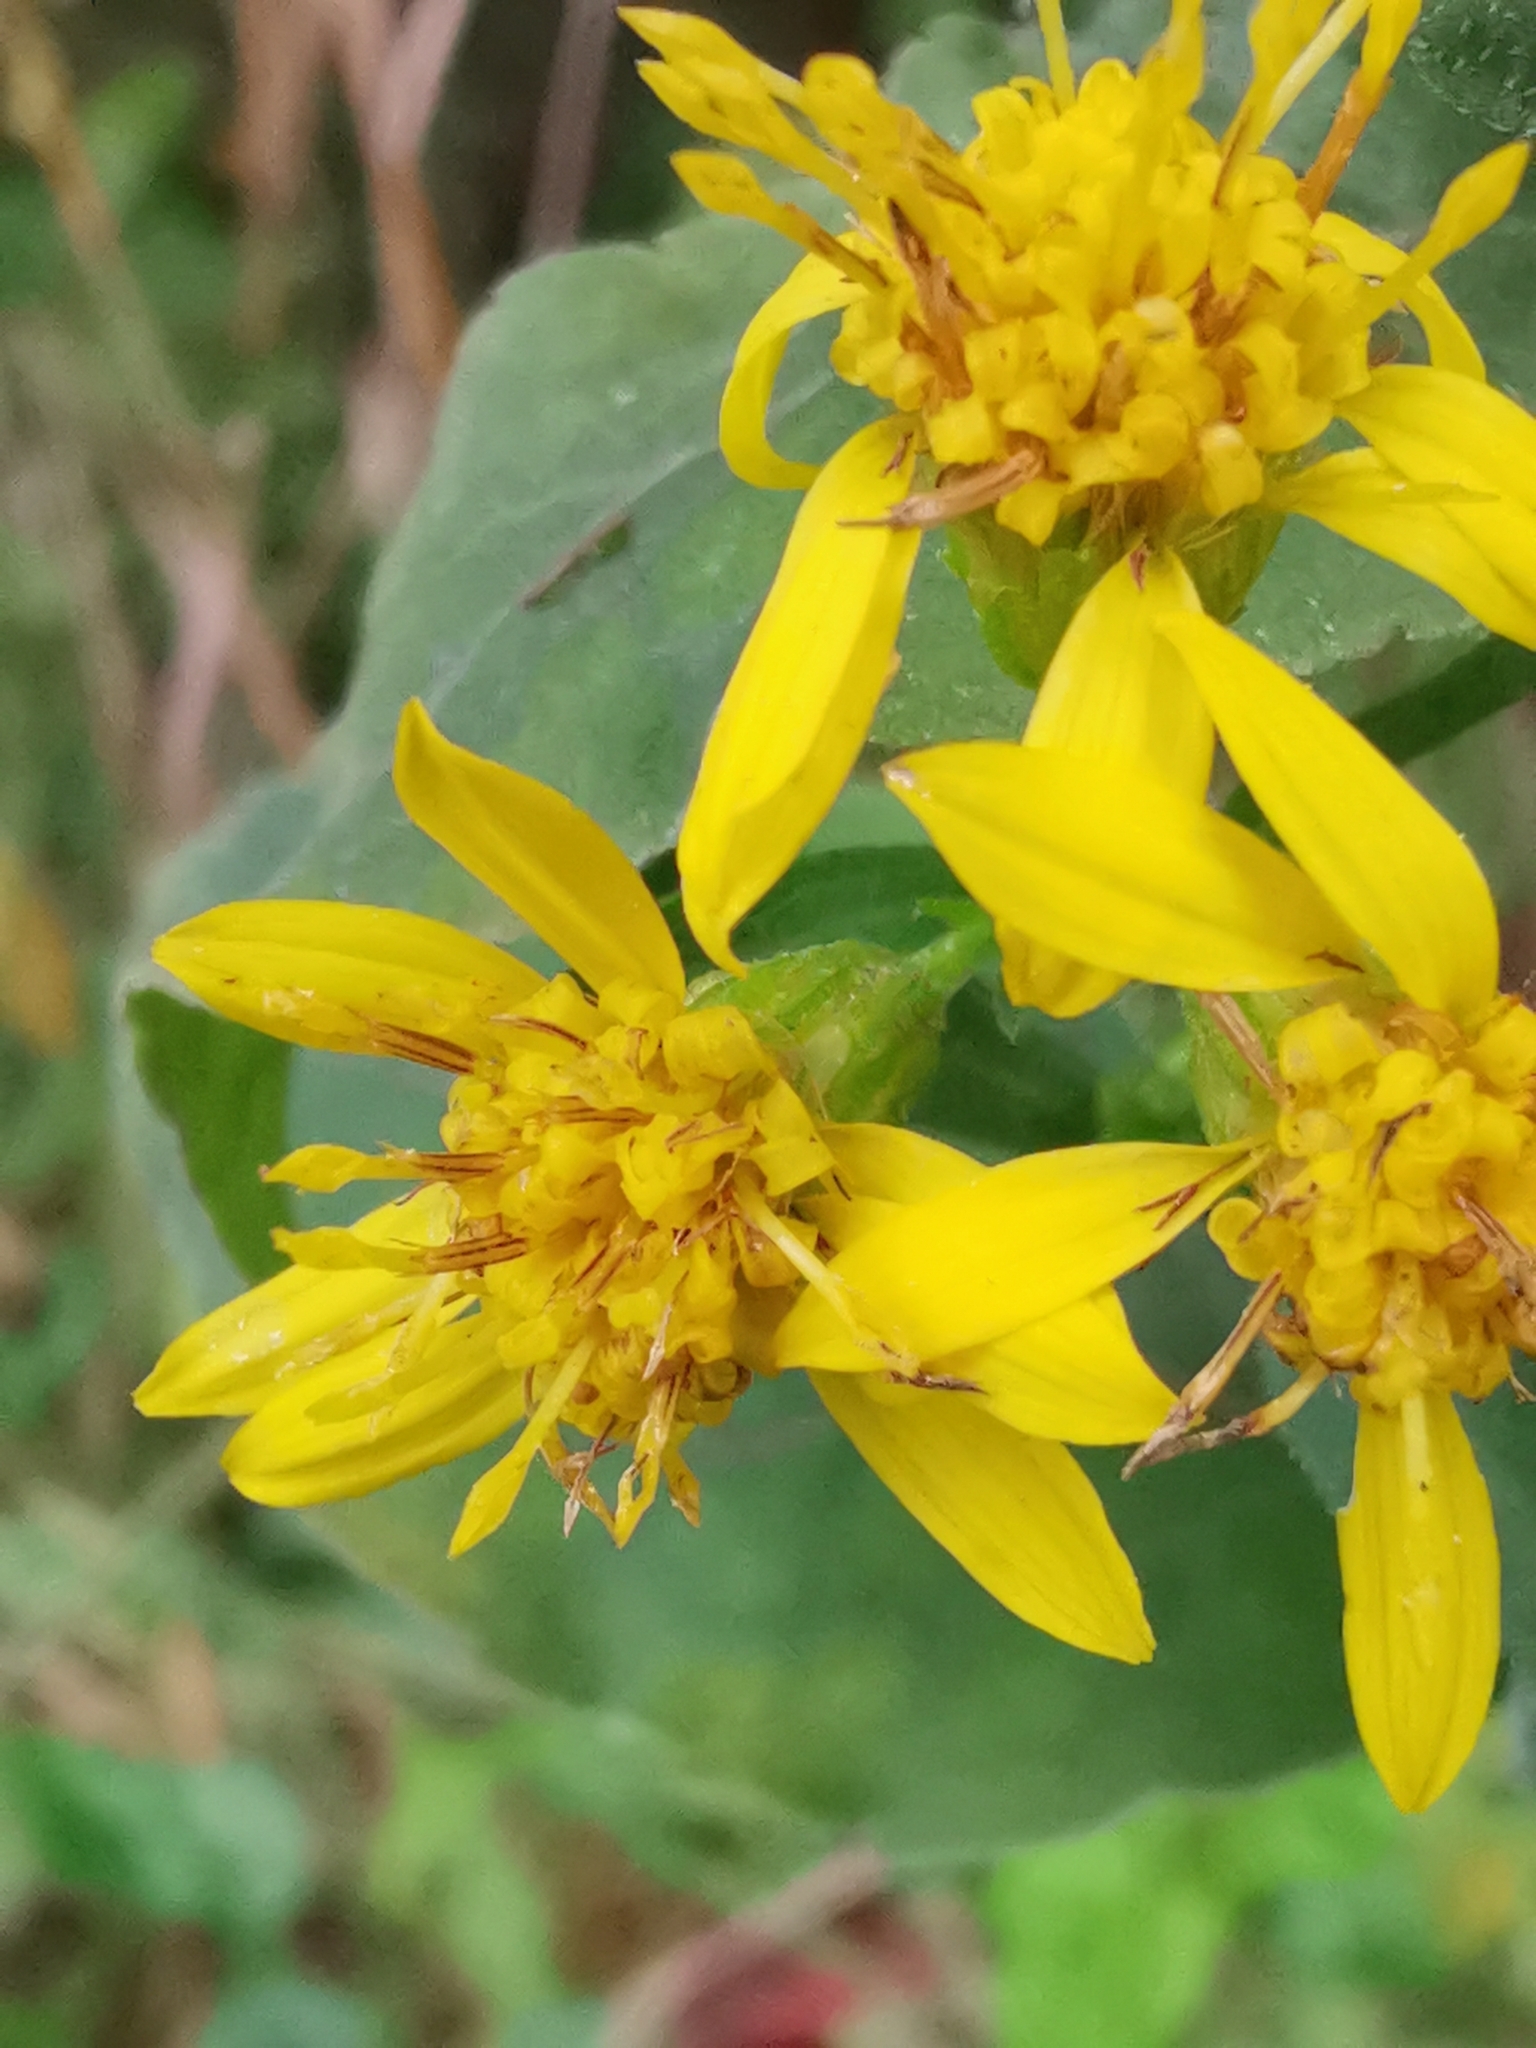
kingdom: Plantae
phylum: Tracheophyta
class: Magnoliopsida
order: Asterales
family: Asteraceae
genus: Solidago
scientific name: Solidago virgaurea
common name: Goldenrod
